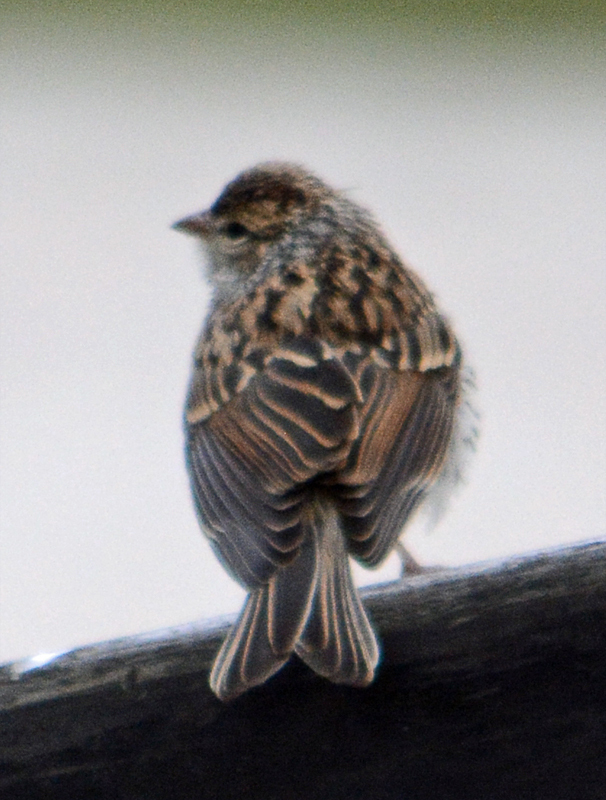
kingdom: Animalia
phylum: Chordata
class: Aves
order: Passeriformes
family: Passerellidae
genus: Spizella
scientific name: Spizella passerina
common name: Chipping sparrow
